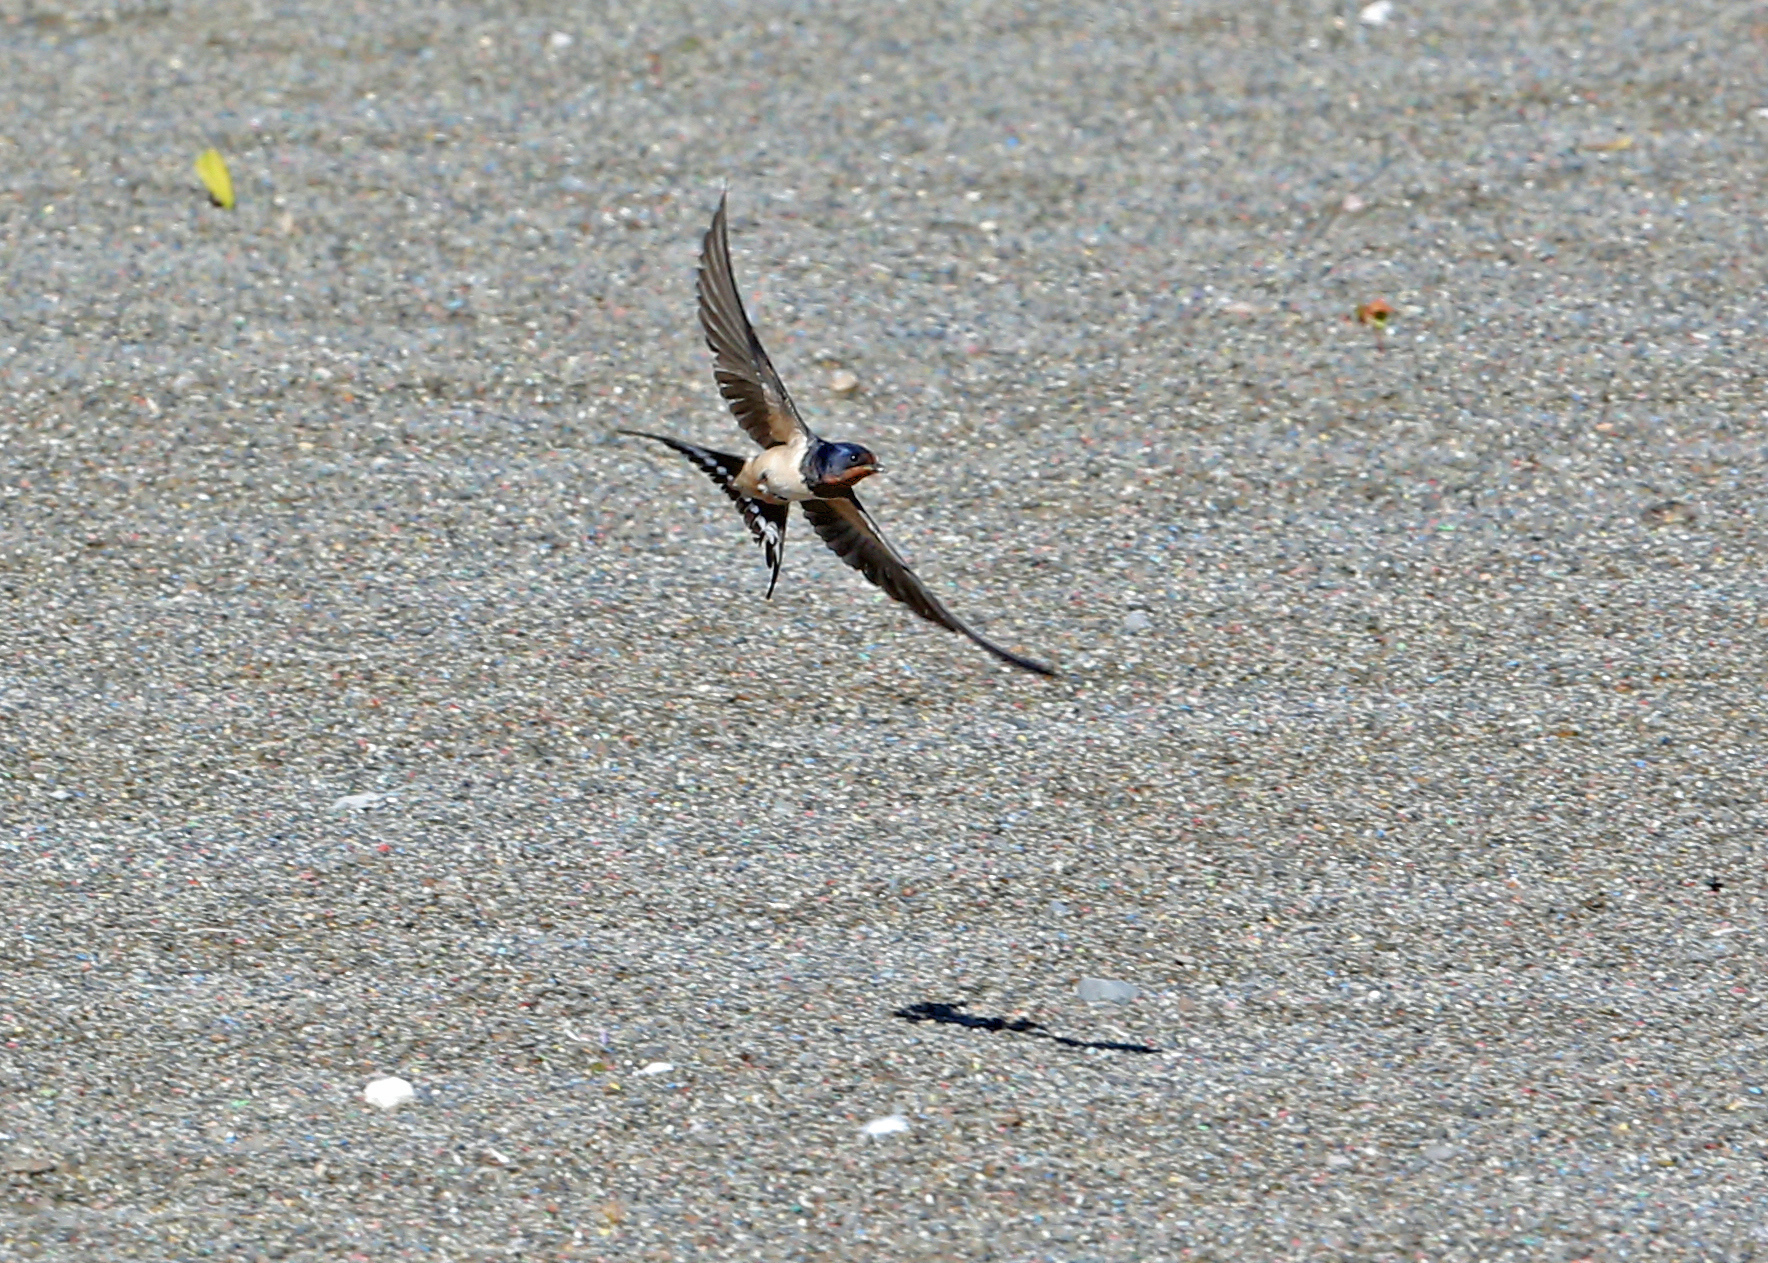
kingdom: Animalia
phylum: Chordata
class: Aves
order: Passeriformes
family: Hirundinidae
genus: Hirundo
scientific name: Hirundo rustica
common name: Barn swallow
